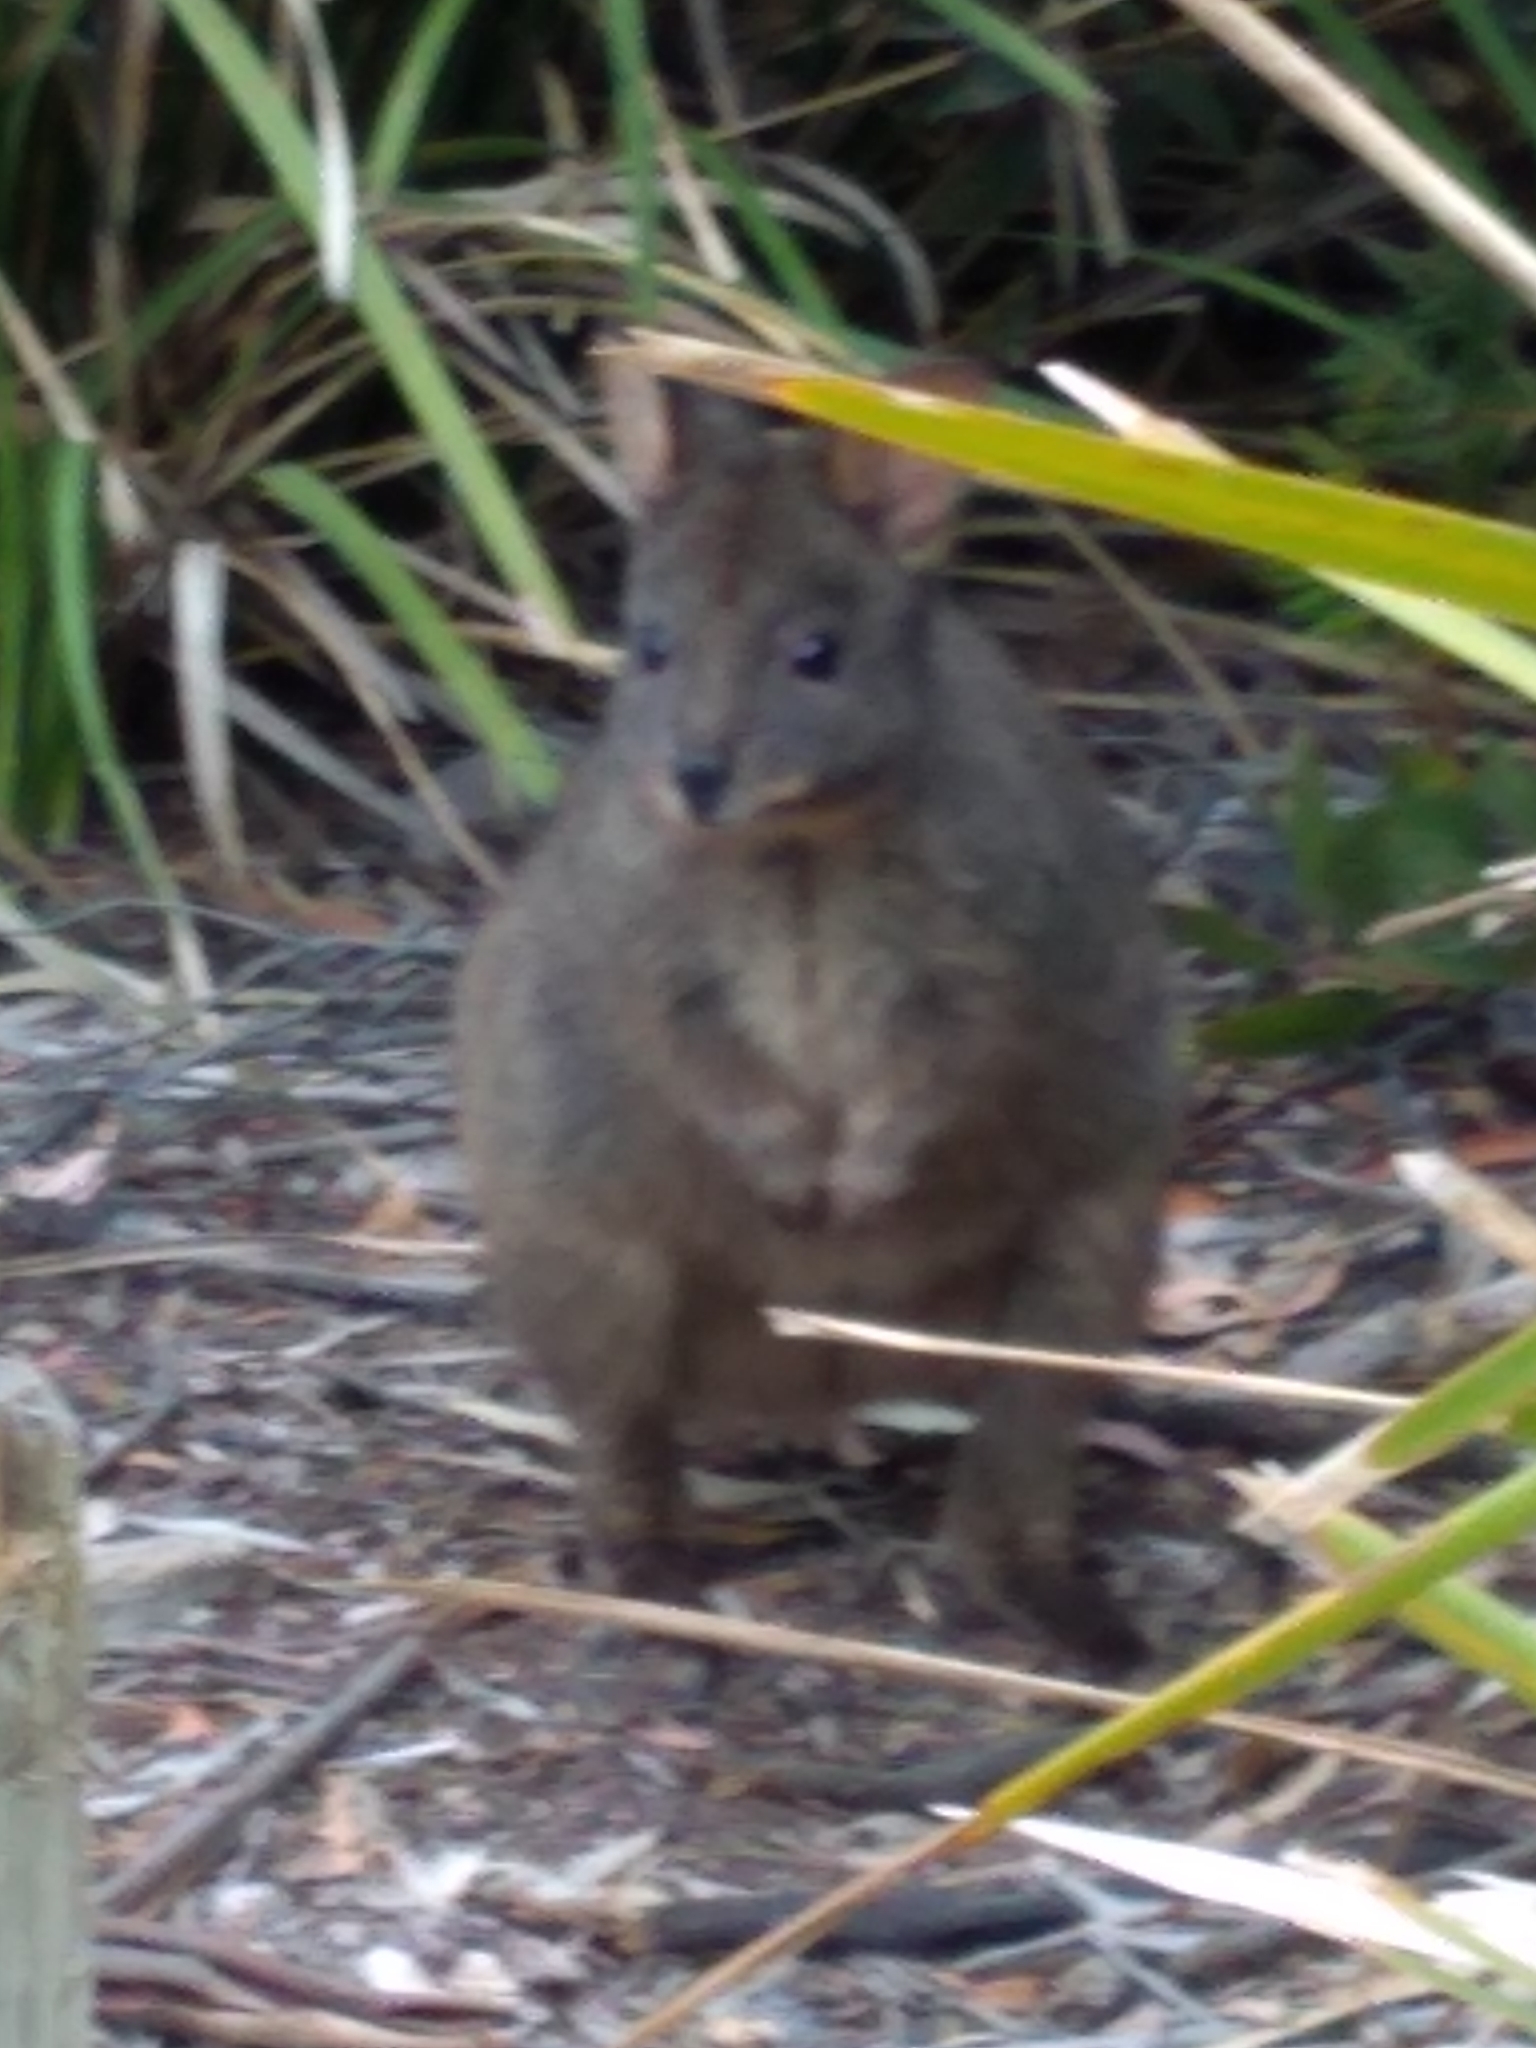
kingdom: Animalia
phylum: Chordata
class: Mammalia
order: Diprotodontia
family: Macropodidae
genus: Thylogale
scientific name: Thylogale billardierii
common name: Tasmanian pademelon
